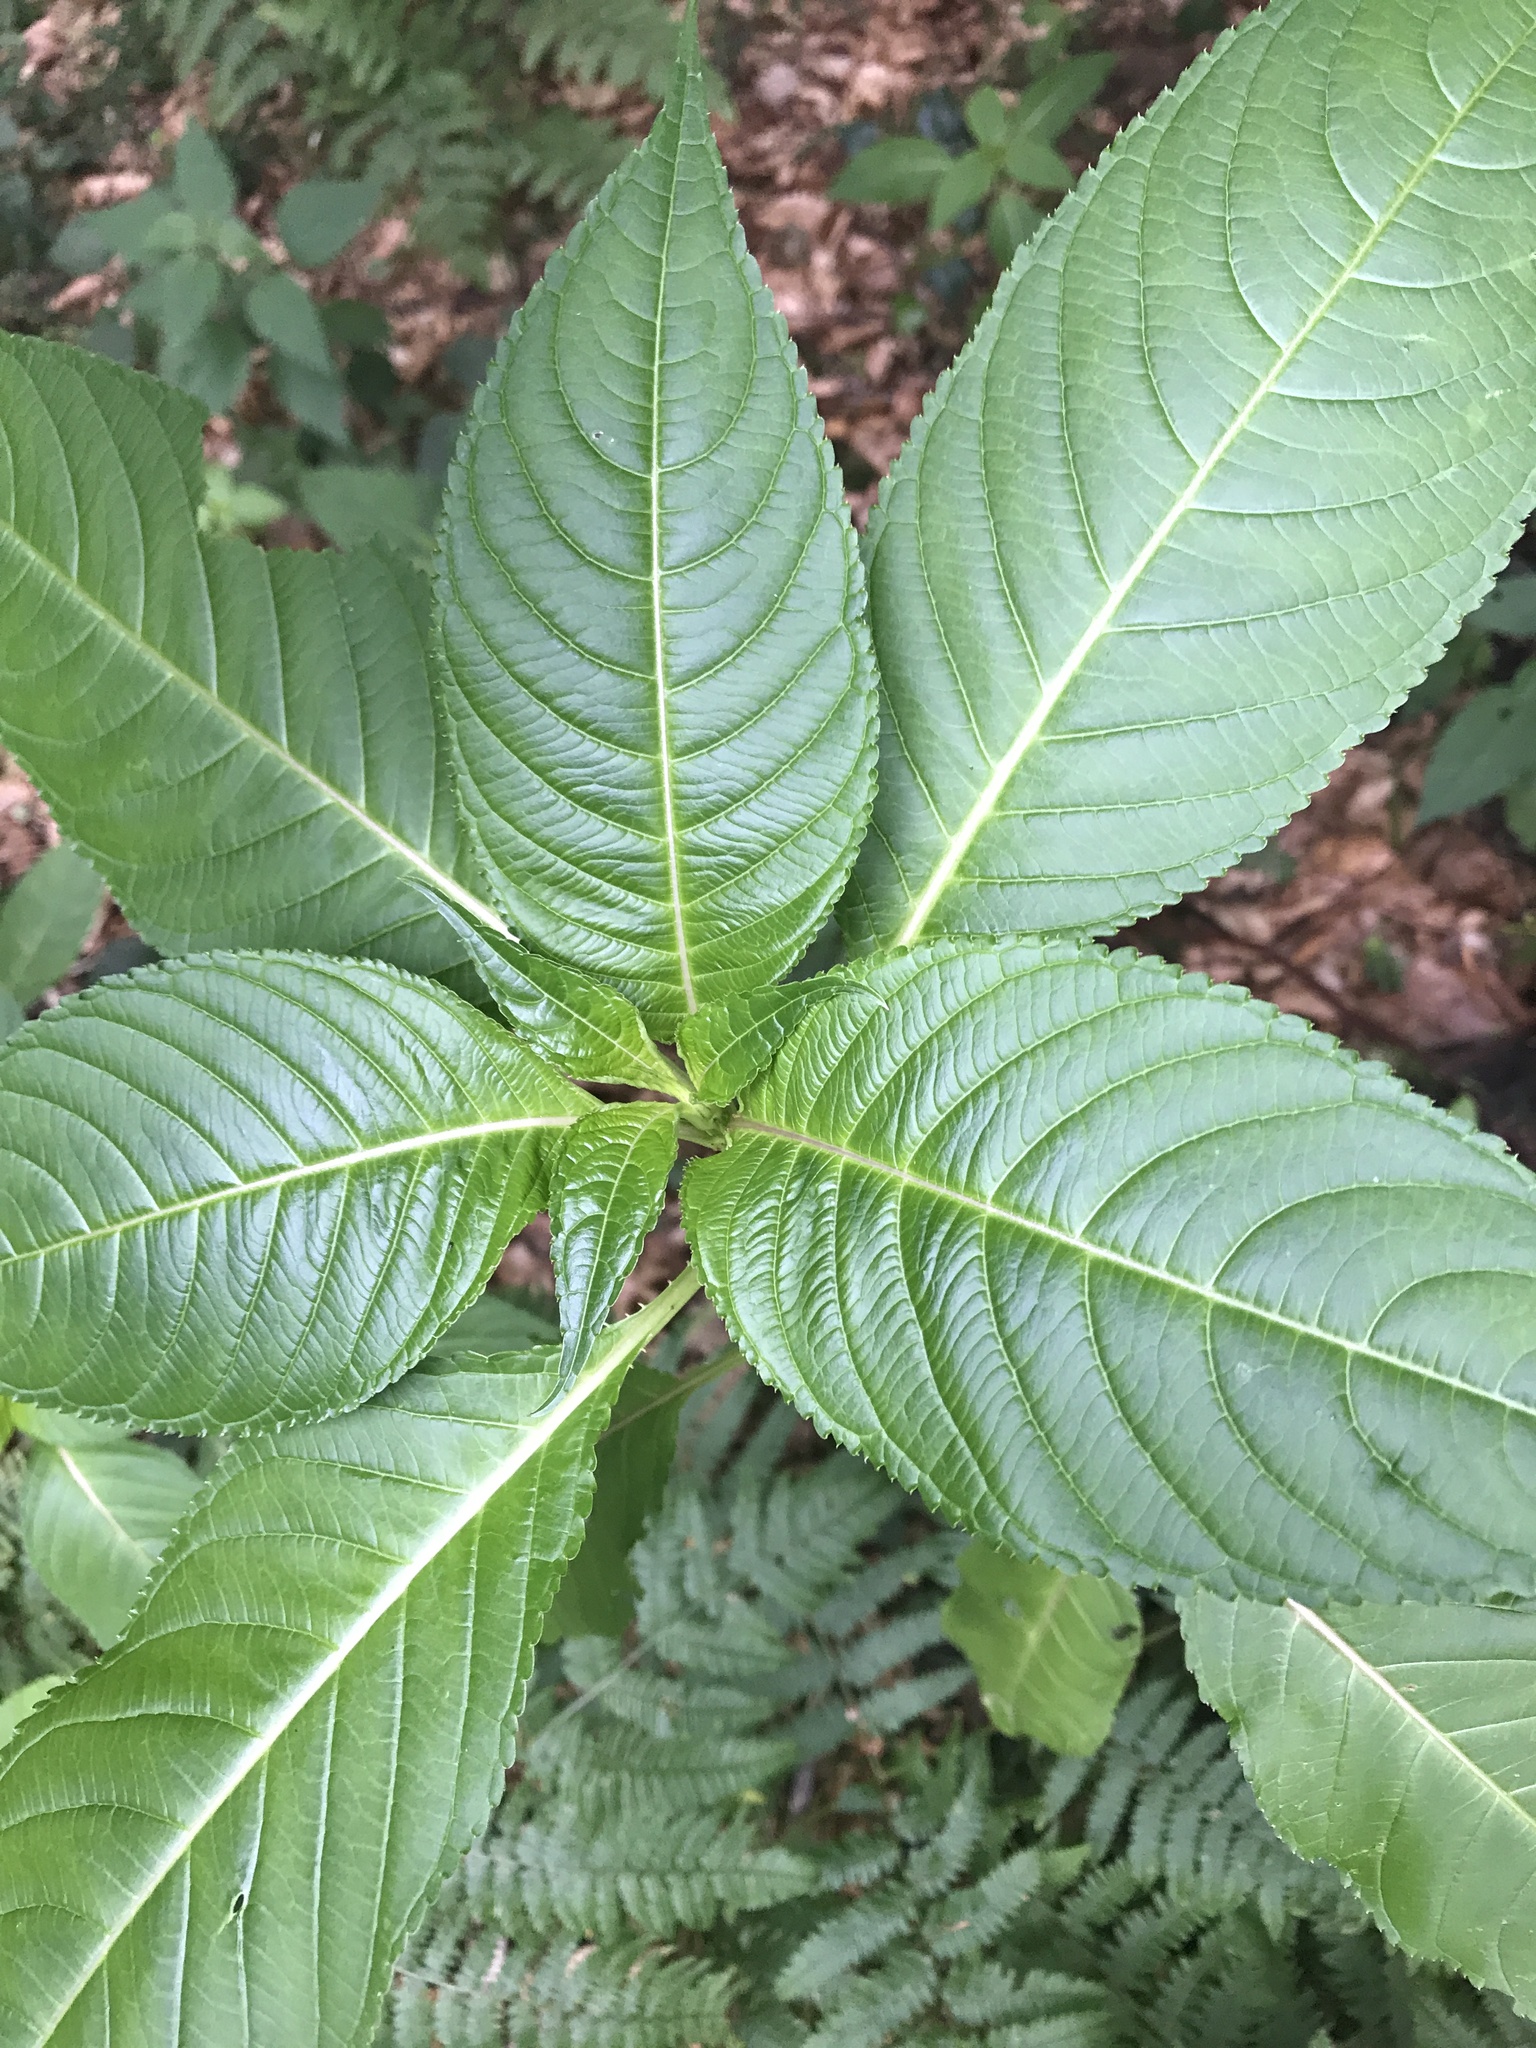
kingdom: Plantae
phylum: Tracheophyta
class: Magnoliopsida
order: Ericales
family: Balsaminaceae
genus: Impatiens
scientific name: Impatiens glandulifera
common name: Himalayan balsam
